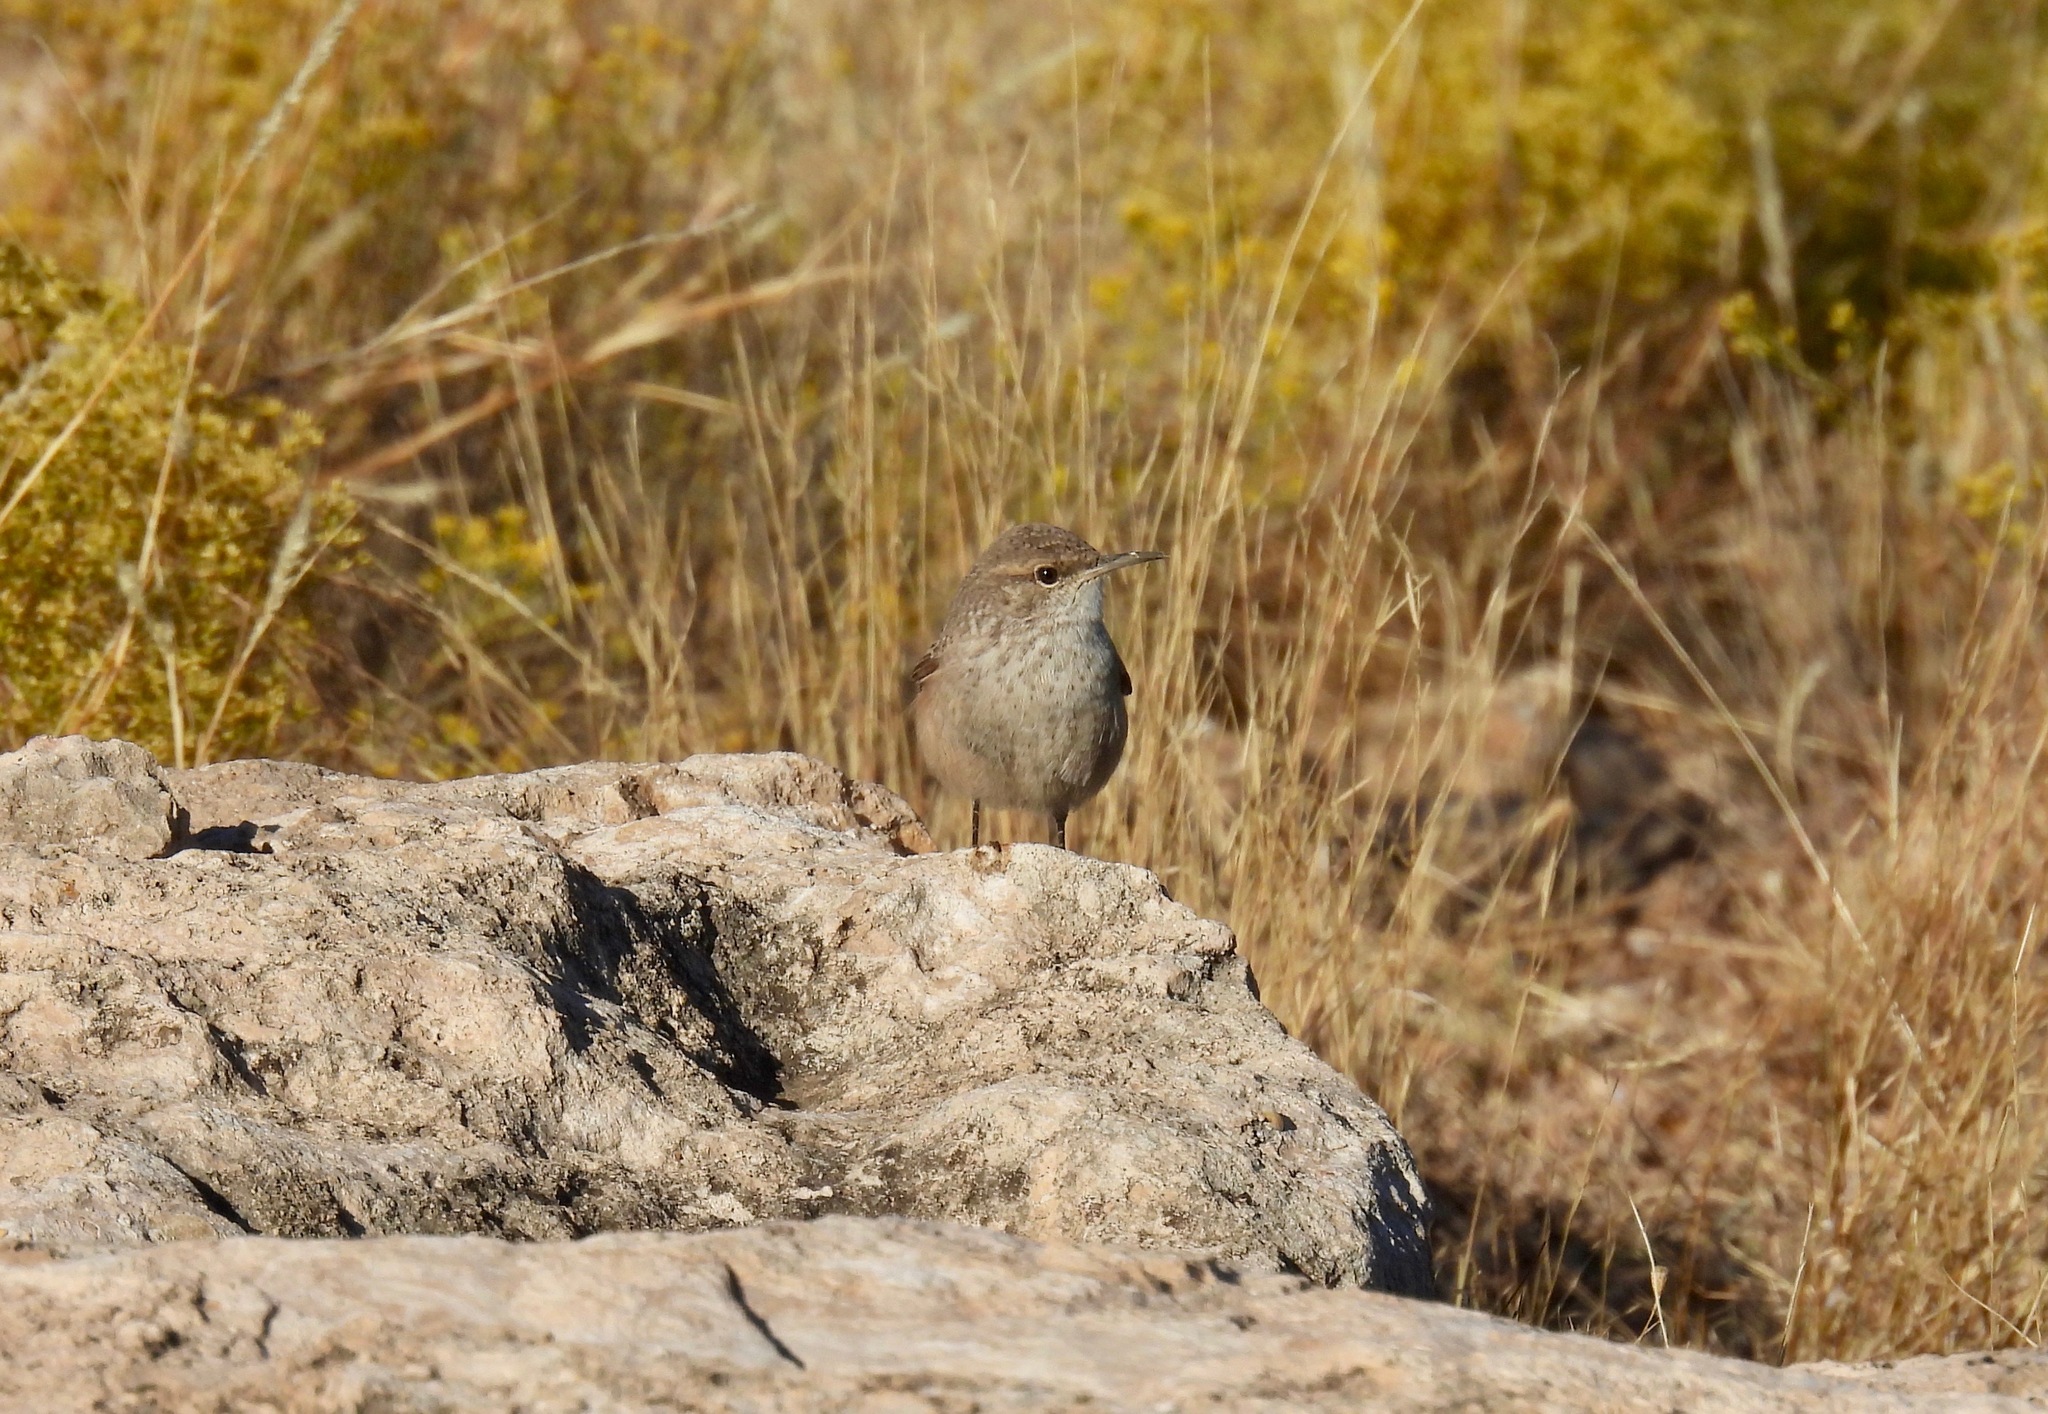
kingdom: Animalia
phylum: Chordata
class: Aves
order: Passeriformes
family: Troglodytidae
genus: Salpinctes
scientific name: Salpinctes obsoletus
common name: Rock wren
